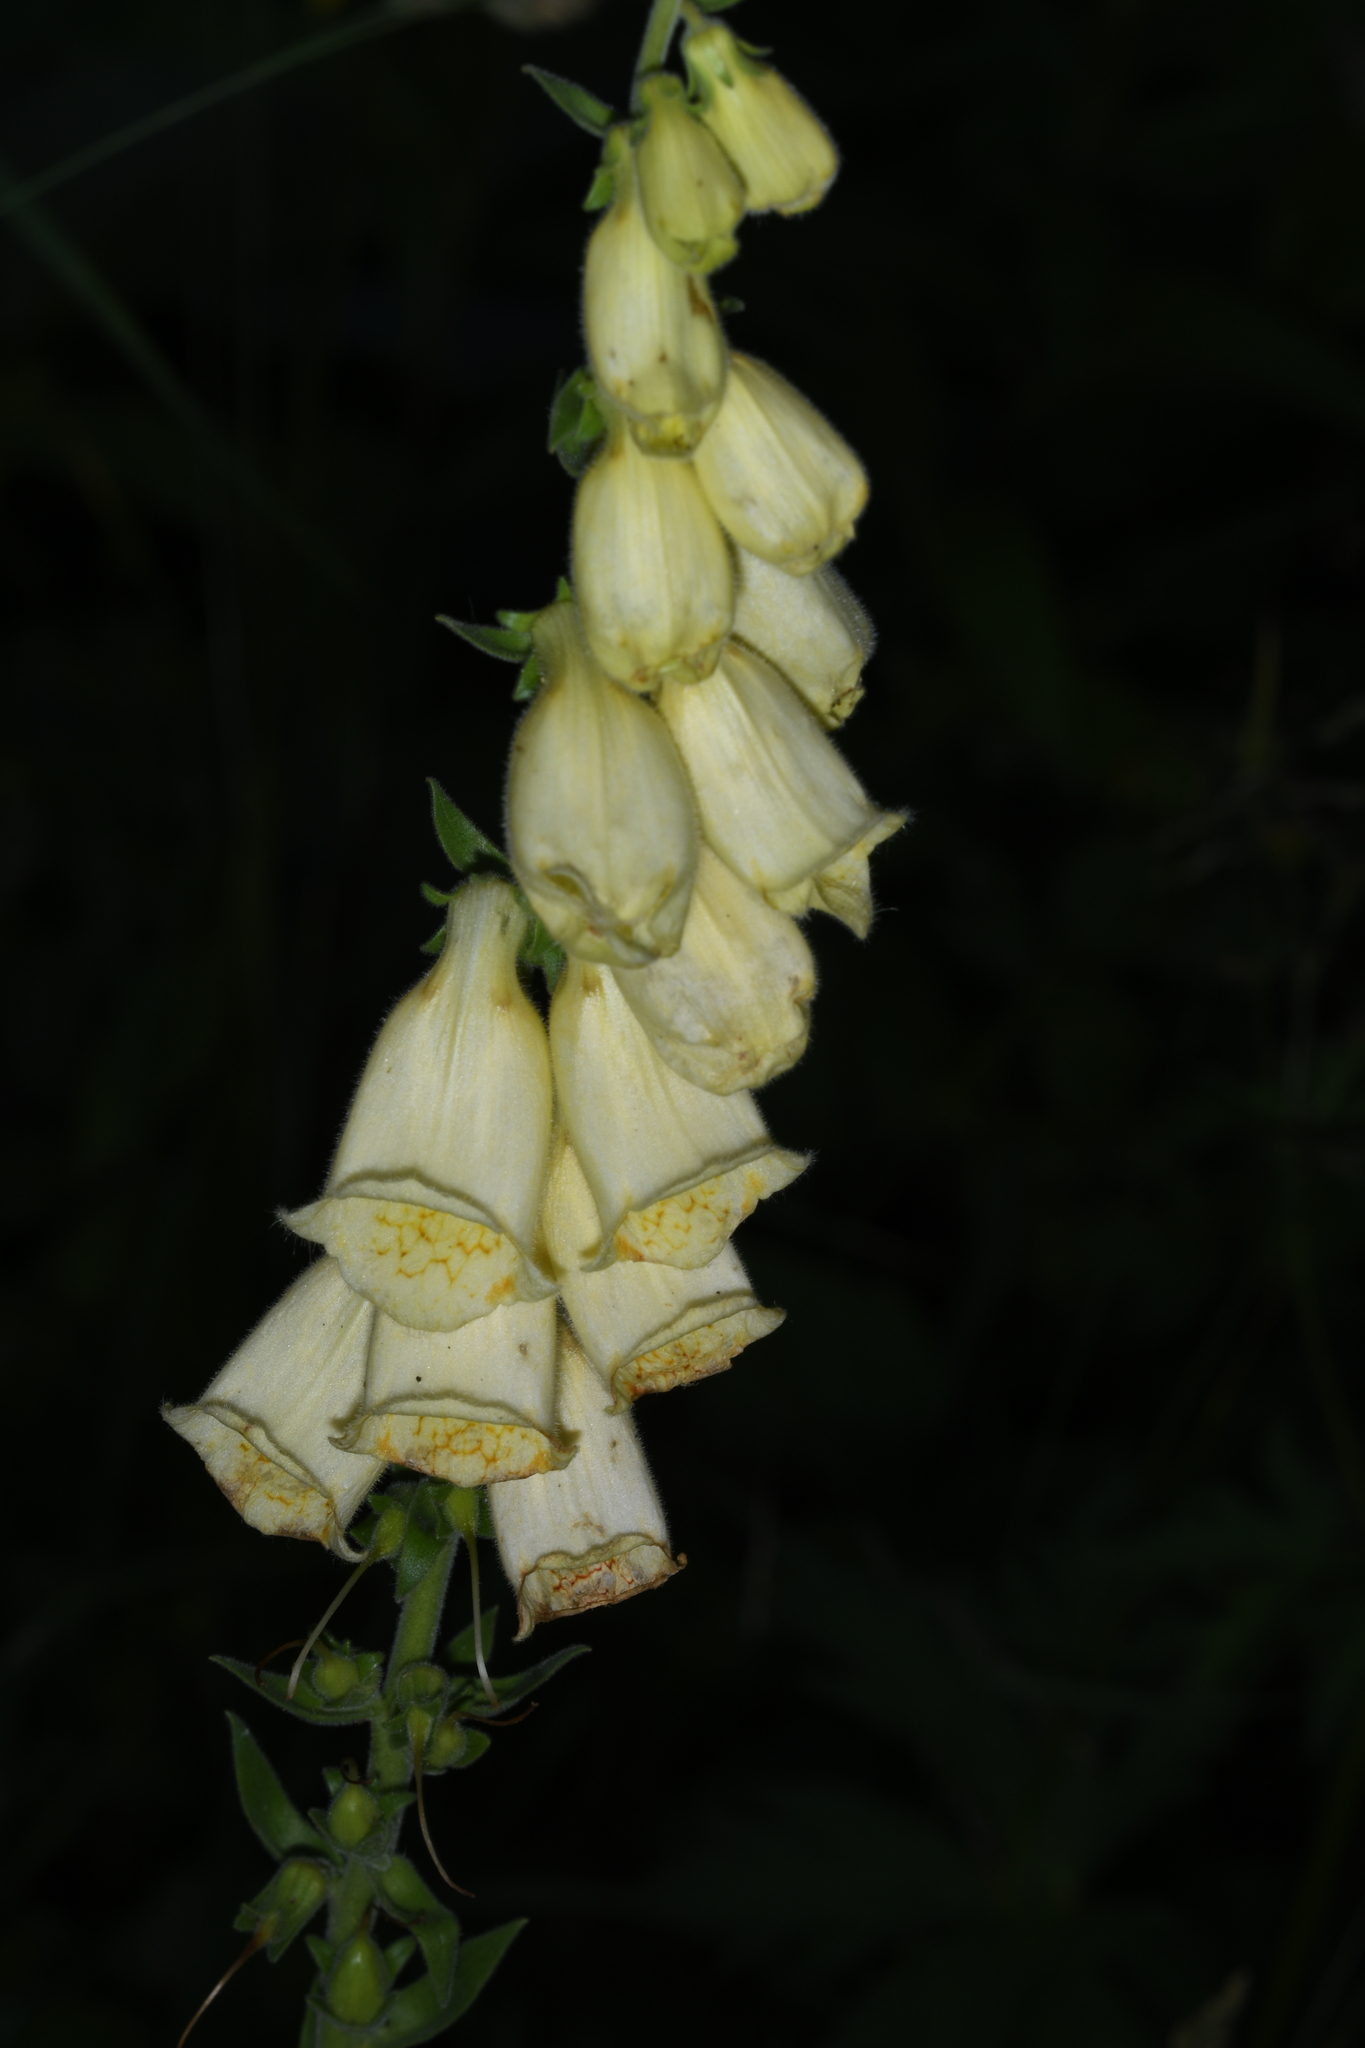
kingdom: Plantae
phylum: Tracheophyta
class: Magnoliopsida
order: Lamiales
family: Plantaginaceae
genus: Digitalis
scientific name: Digitalis grandiflora
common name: Yellow foxglove
